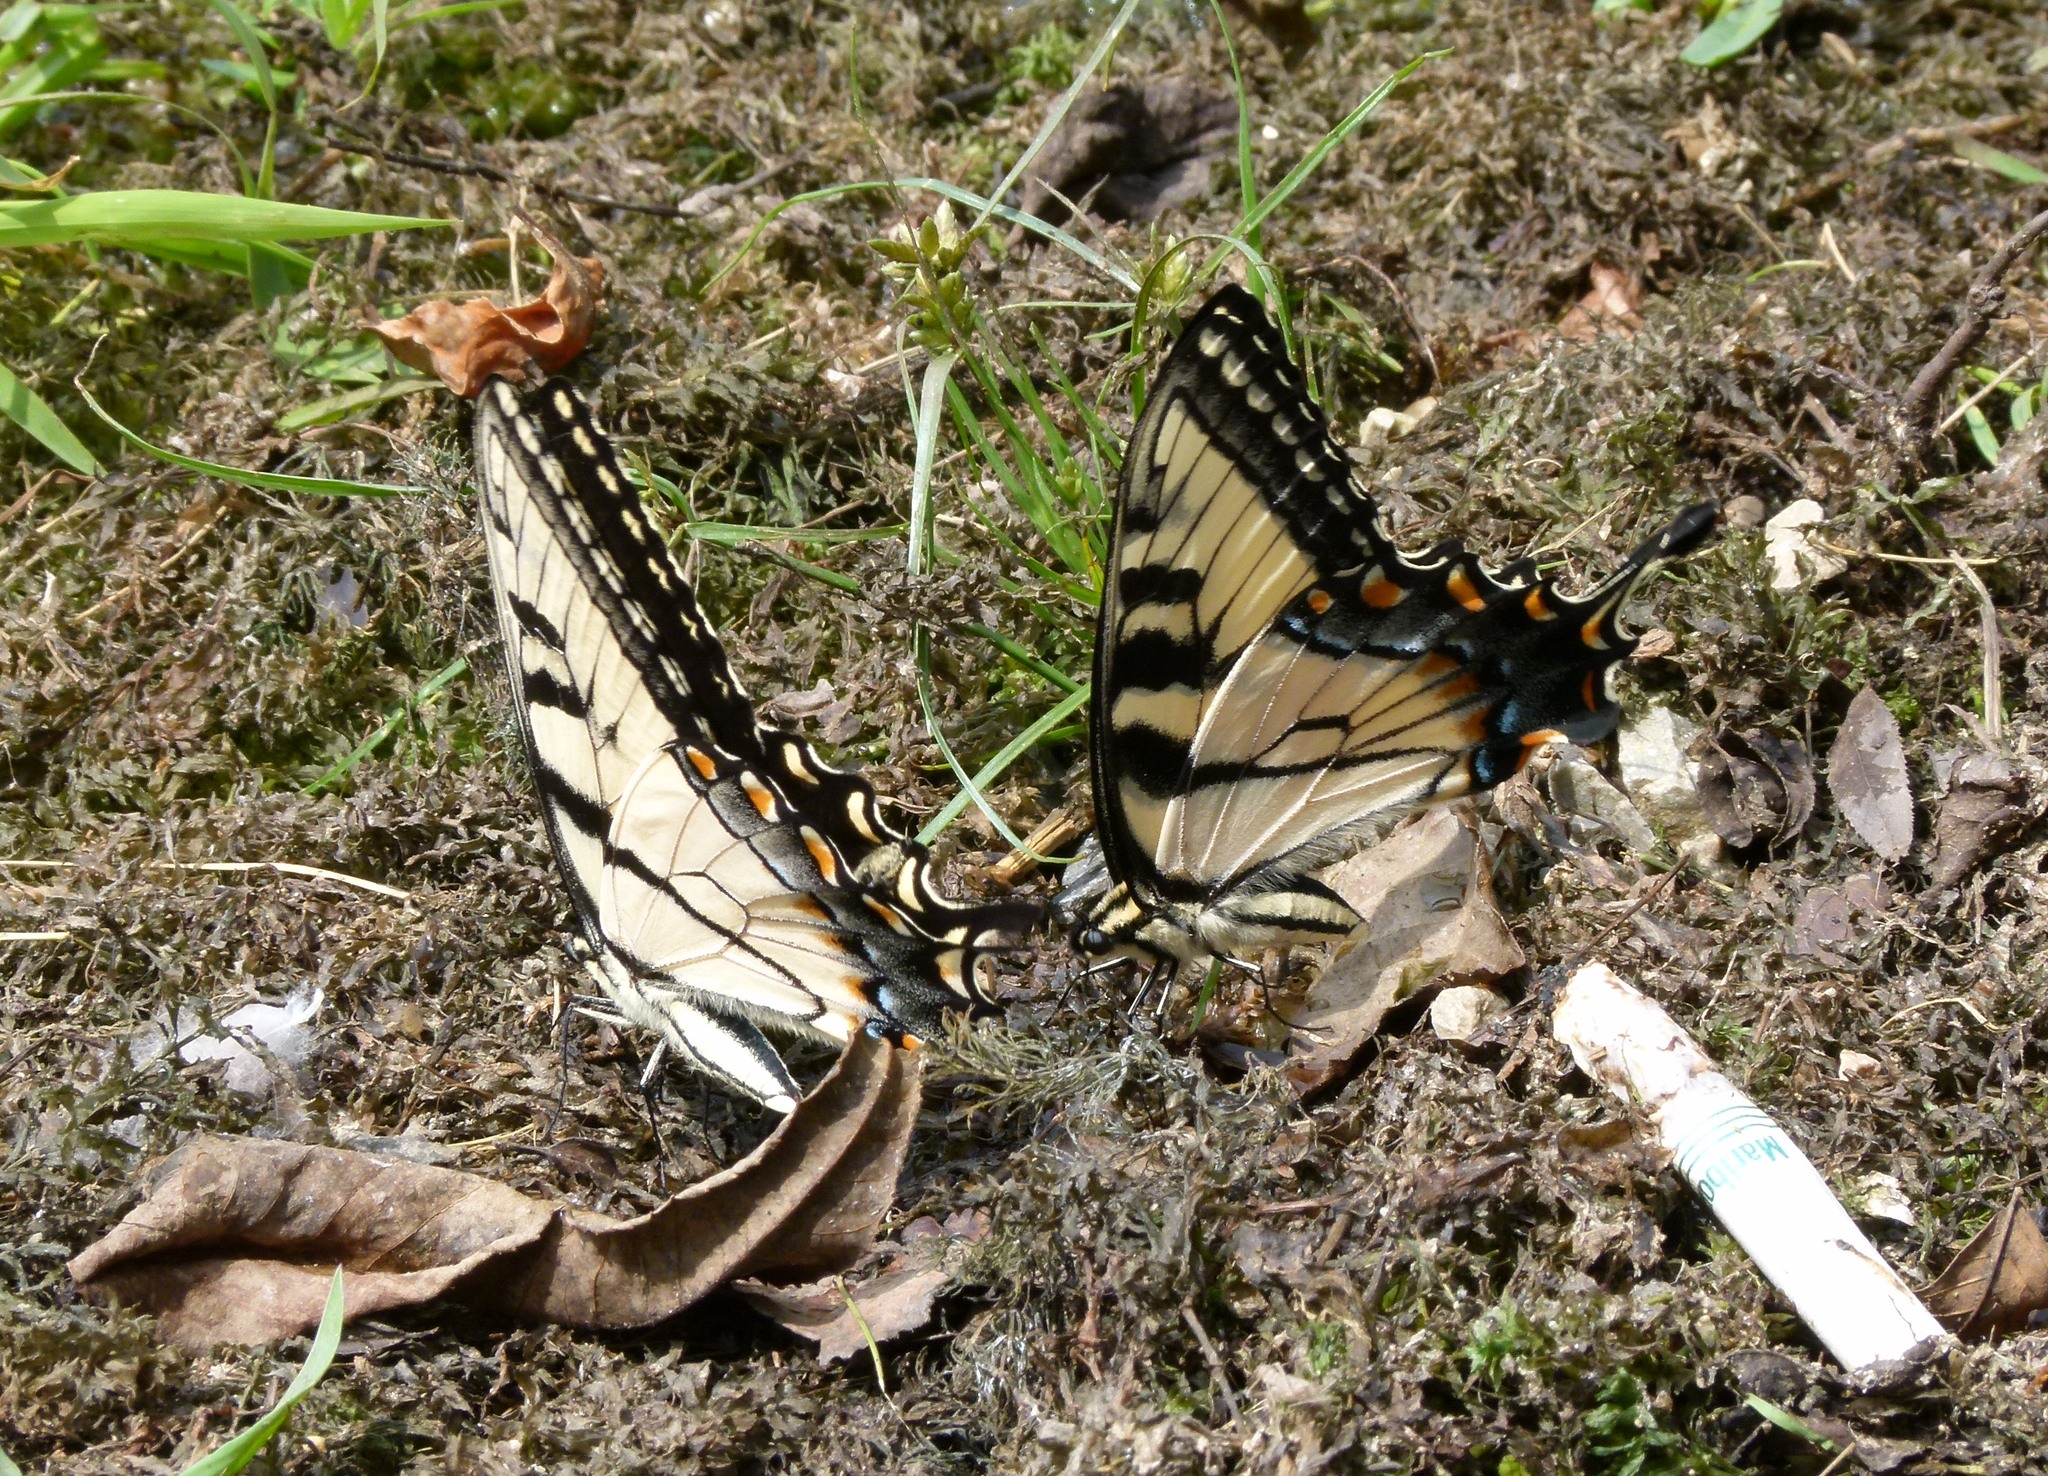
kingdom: Animalia
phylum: Arthropoda
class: Insecta
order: Lepidoptera
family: Papilionidae
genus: Papilio
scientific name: Papilio glaucus
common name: Tiger swallowtail
